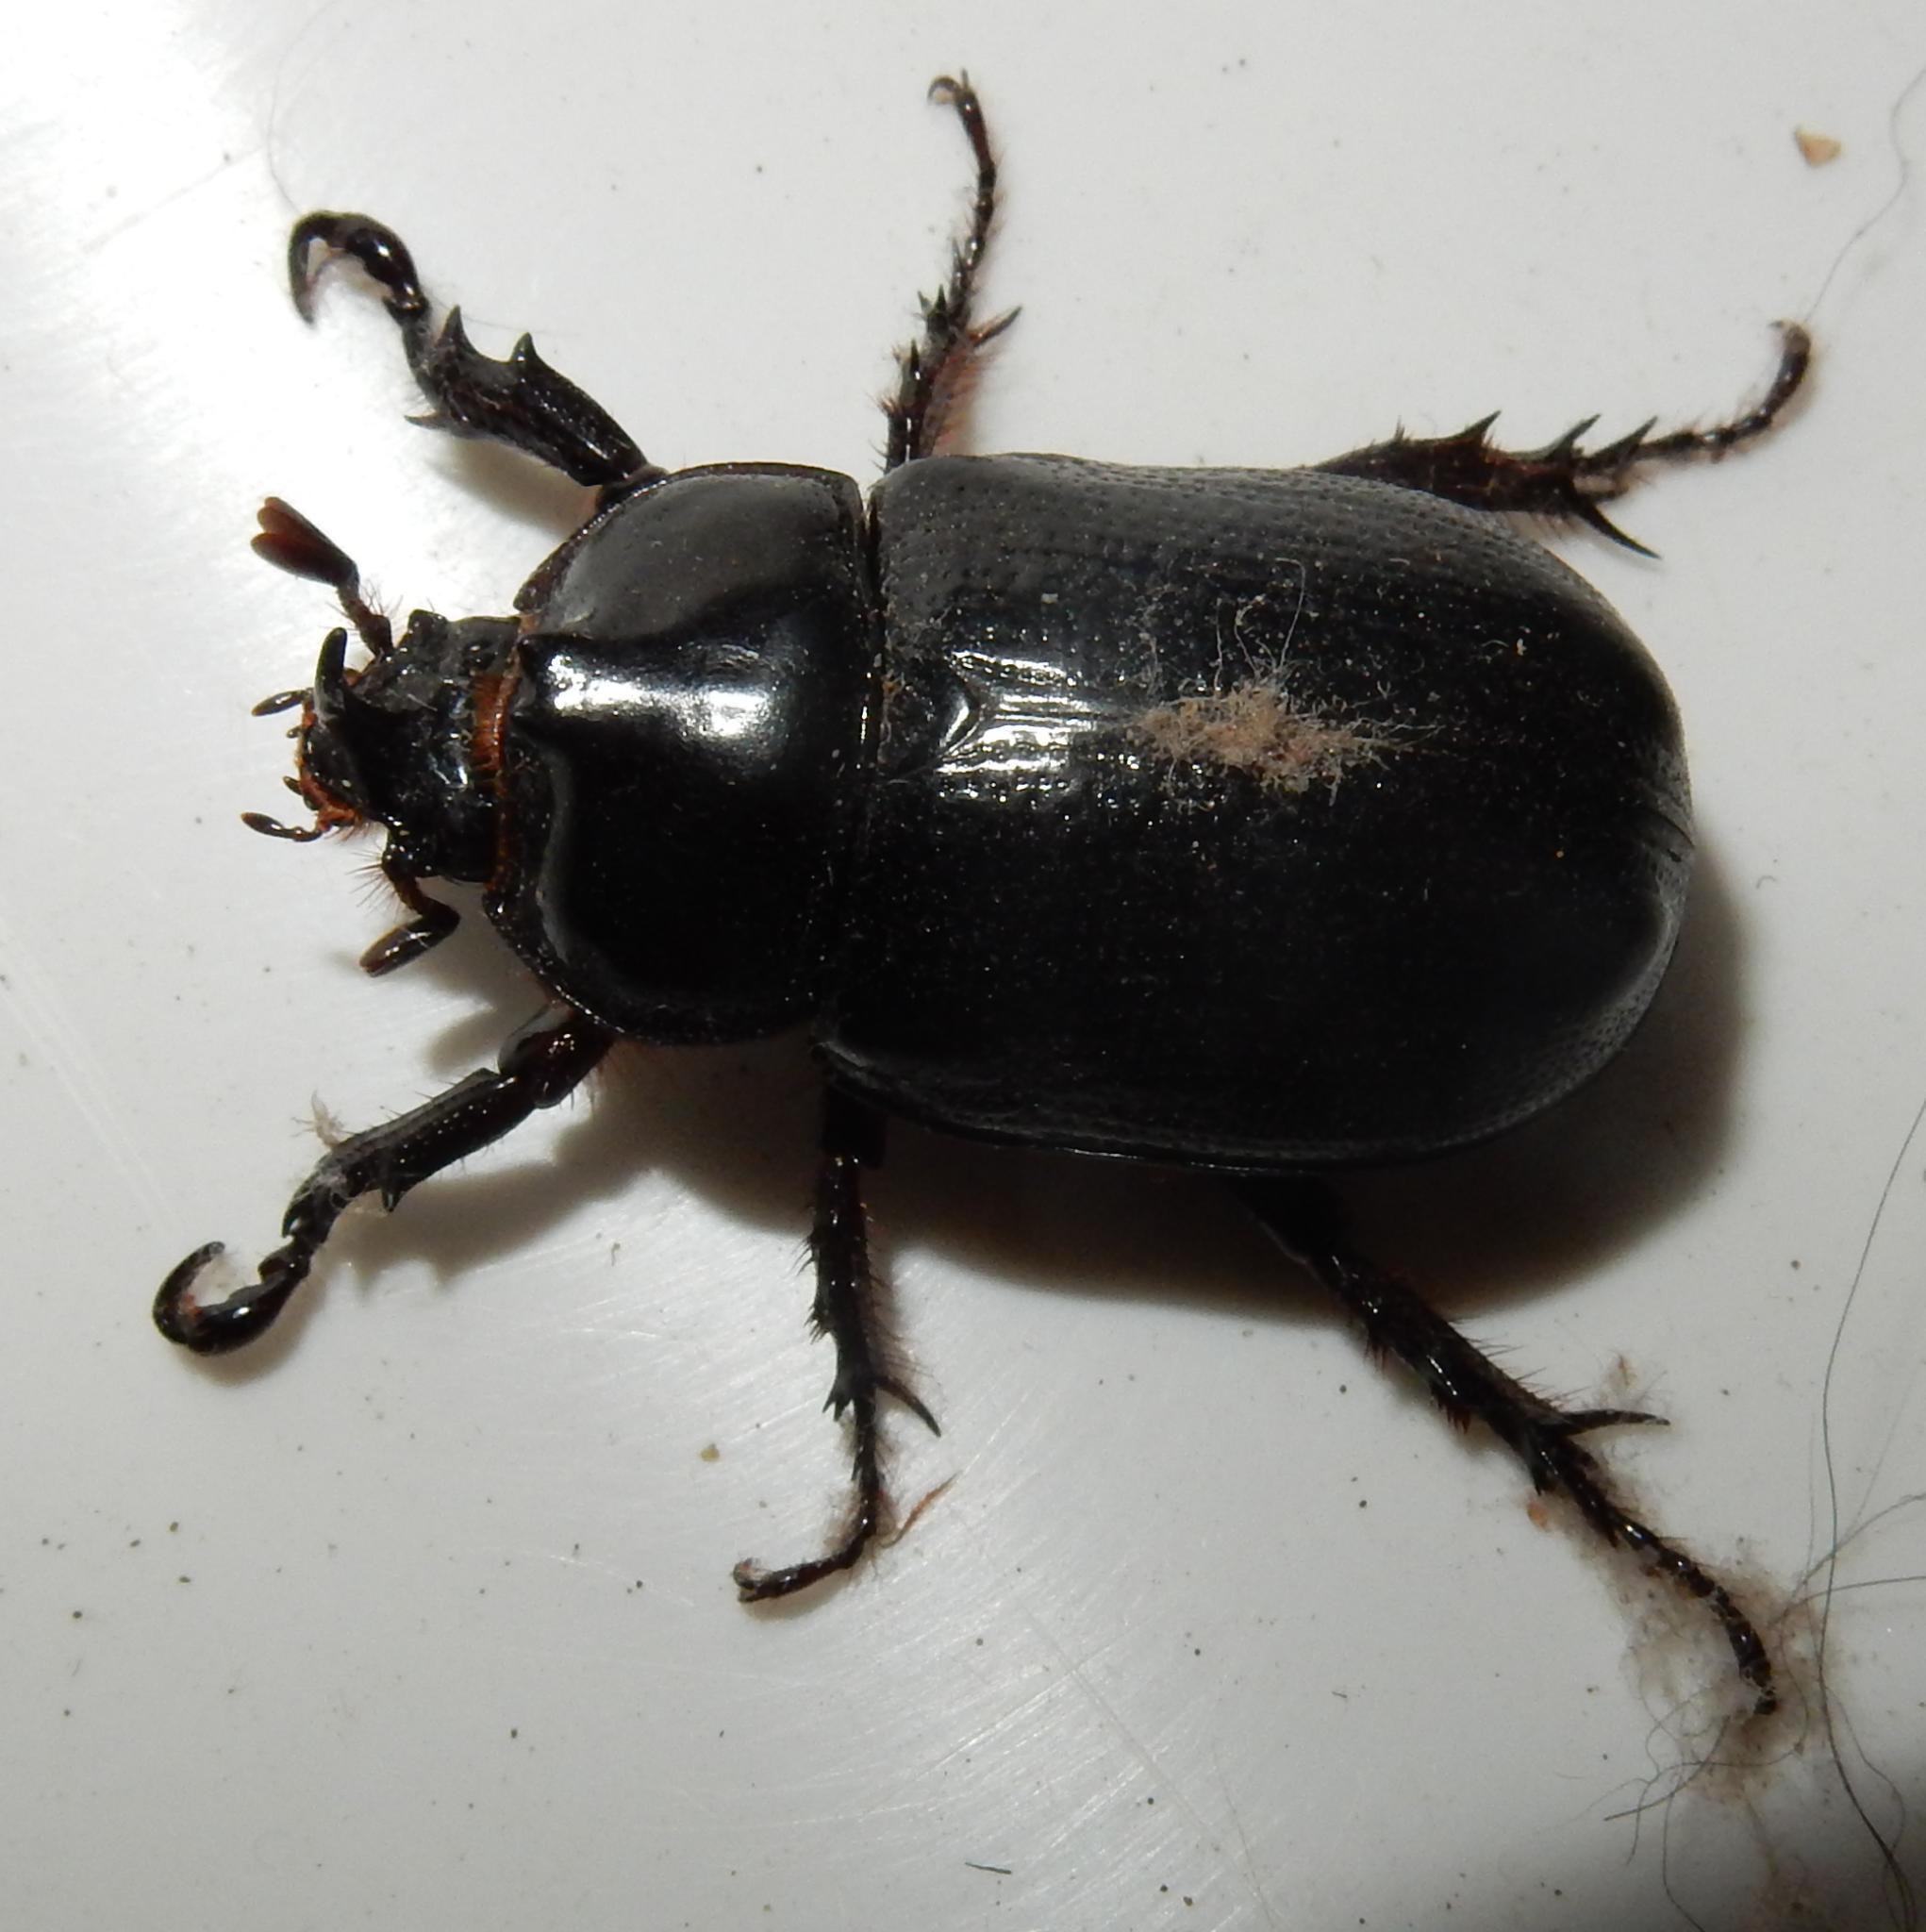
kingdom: Animalia
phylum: Arthropoda
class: Insecta
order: Coleoptera
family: Scarabaeidae
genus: Cyphonistes
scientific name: Cyphonistes vallatus
